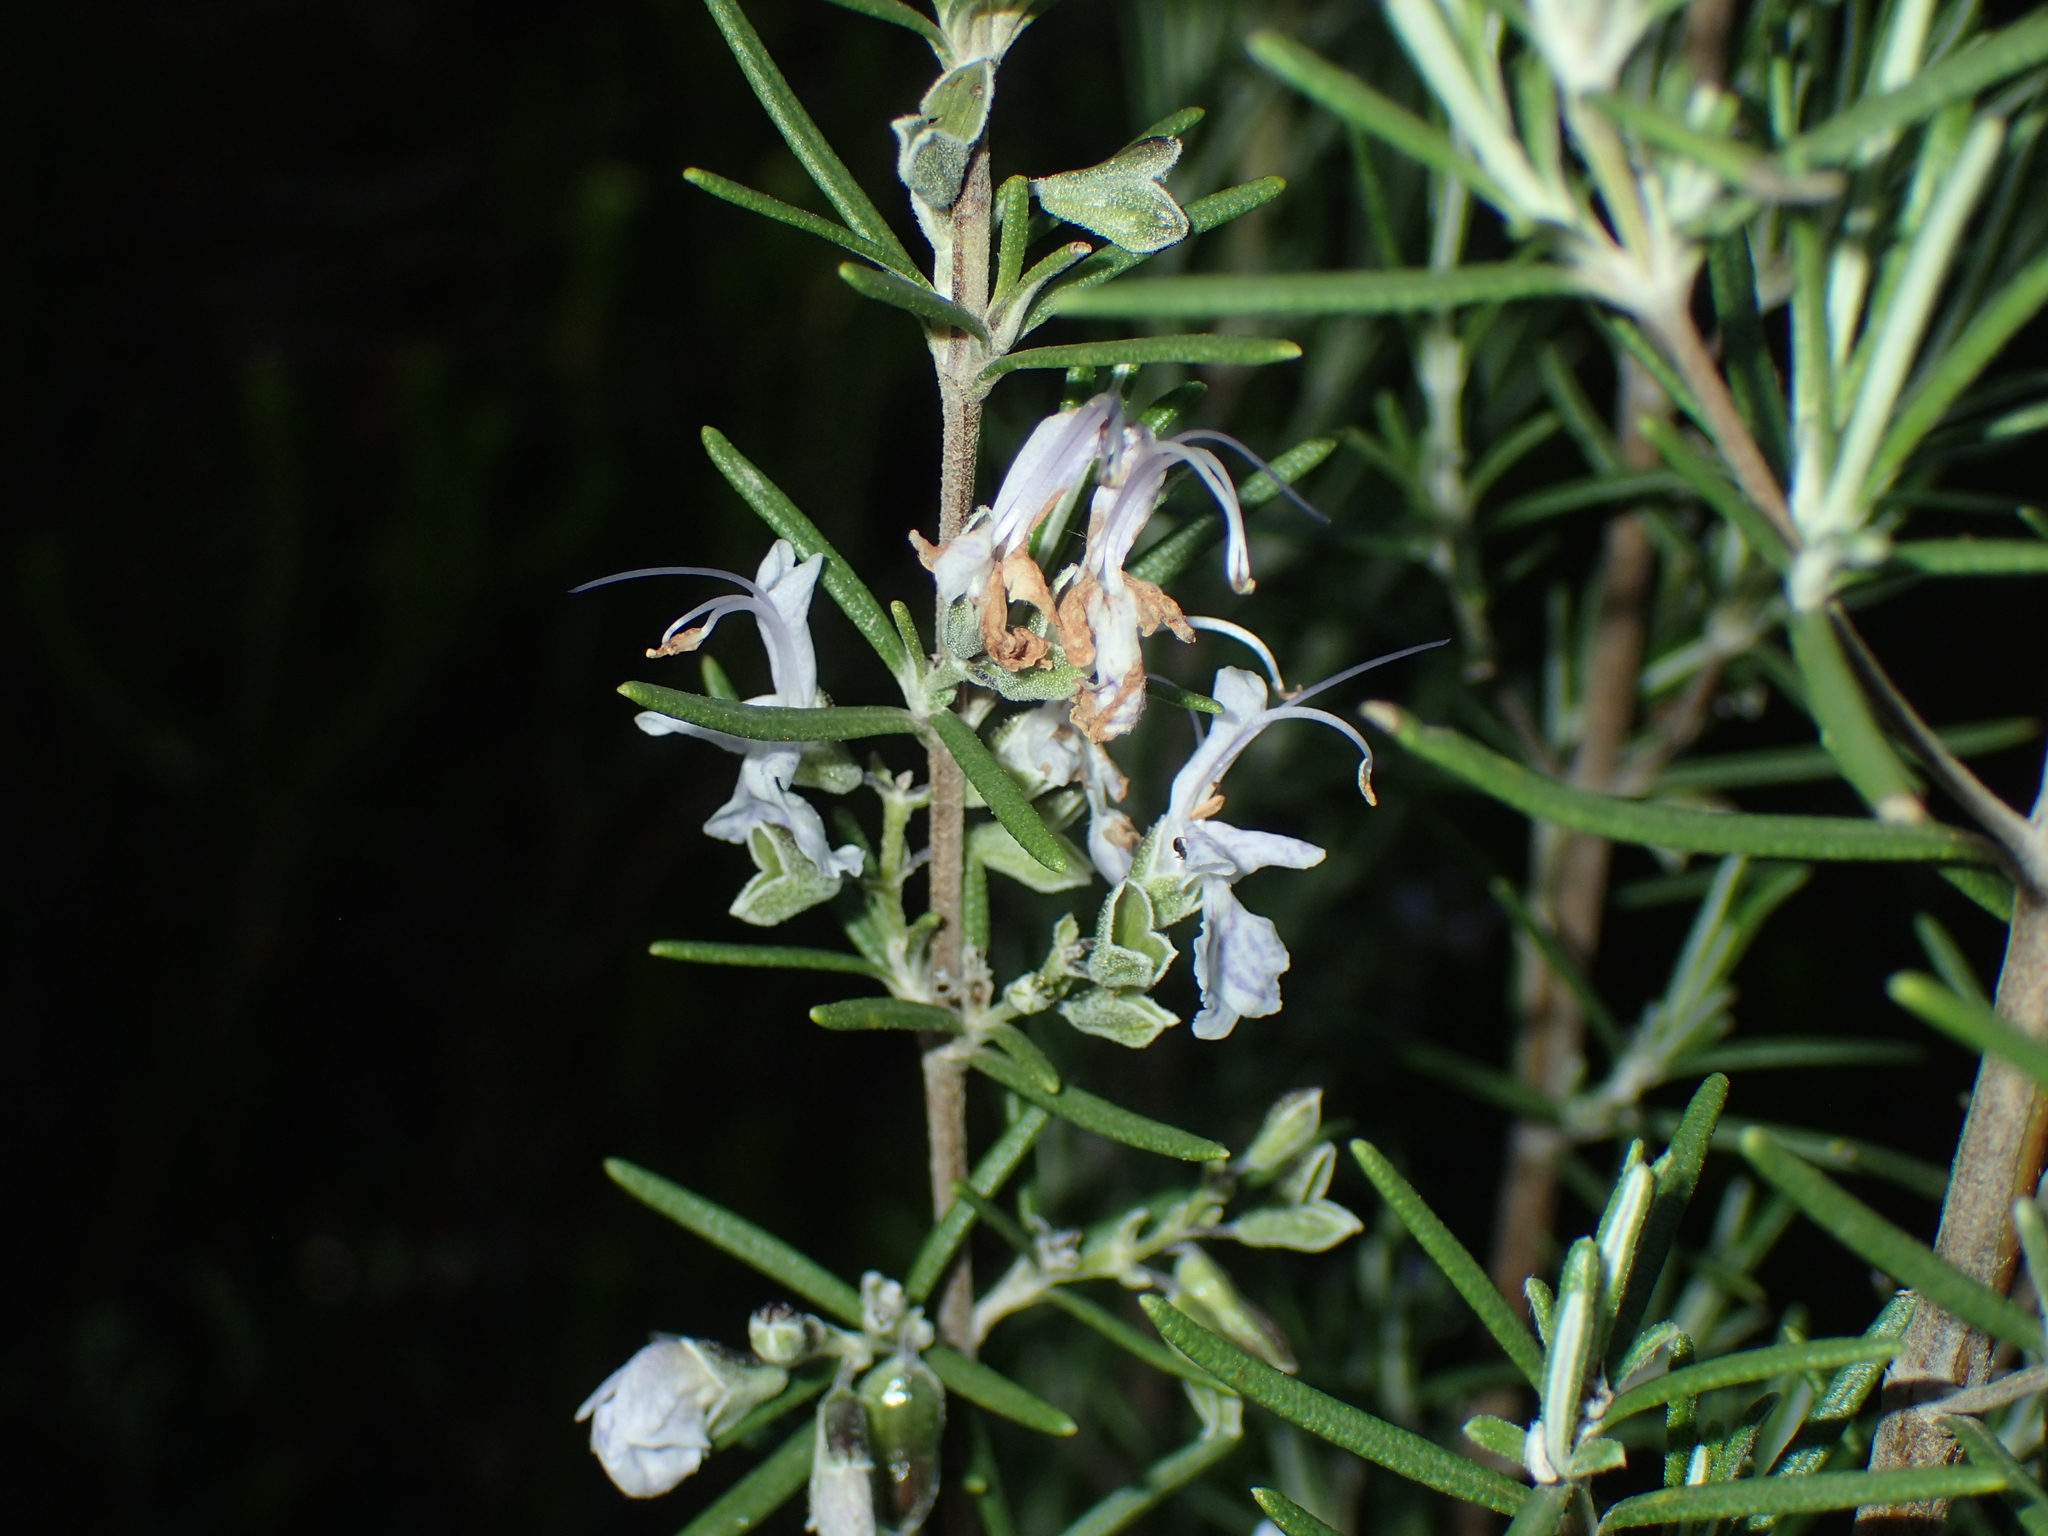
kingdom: Plantae
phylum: Tracheophyta
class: Magnoliopsida
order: Lamiales
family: Lamiaceae
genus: Salvia
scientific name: Salvia rosmarinus
